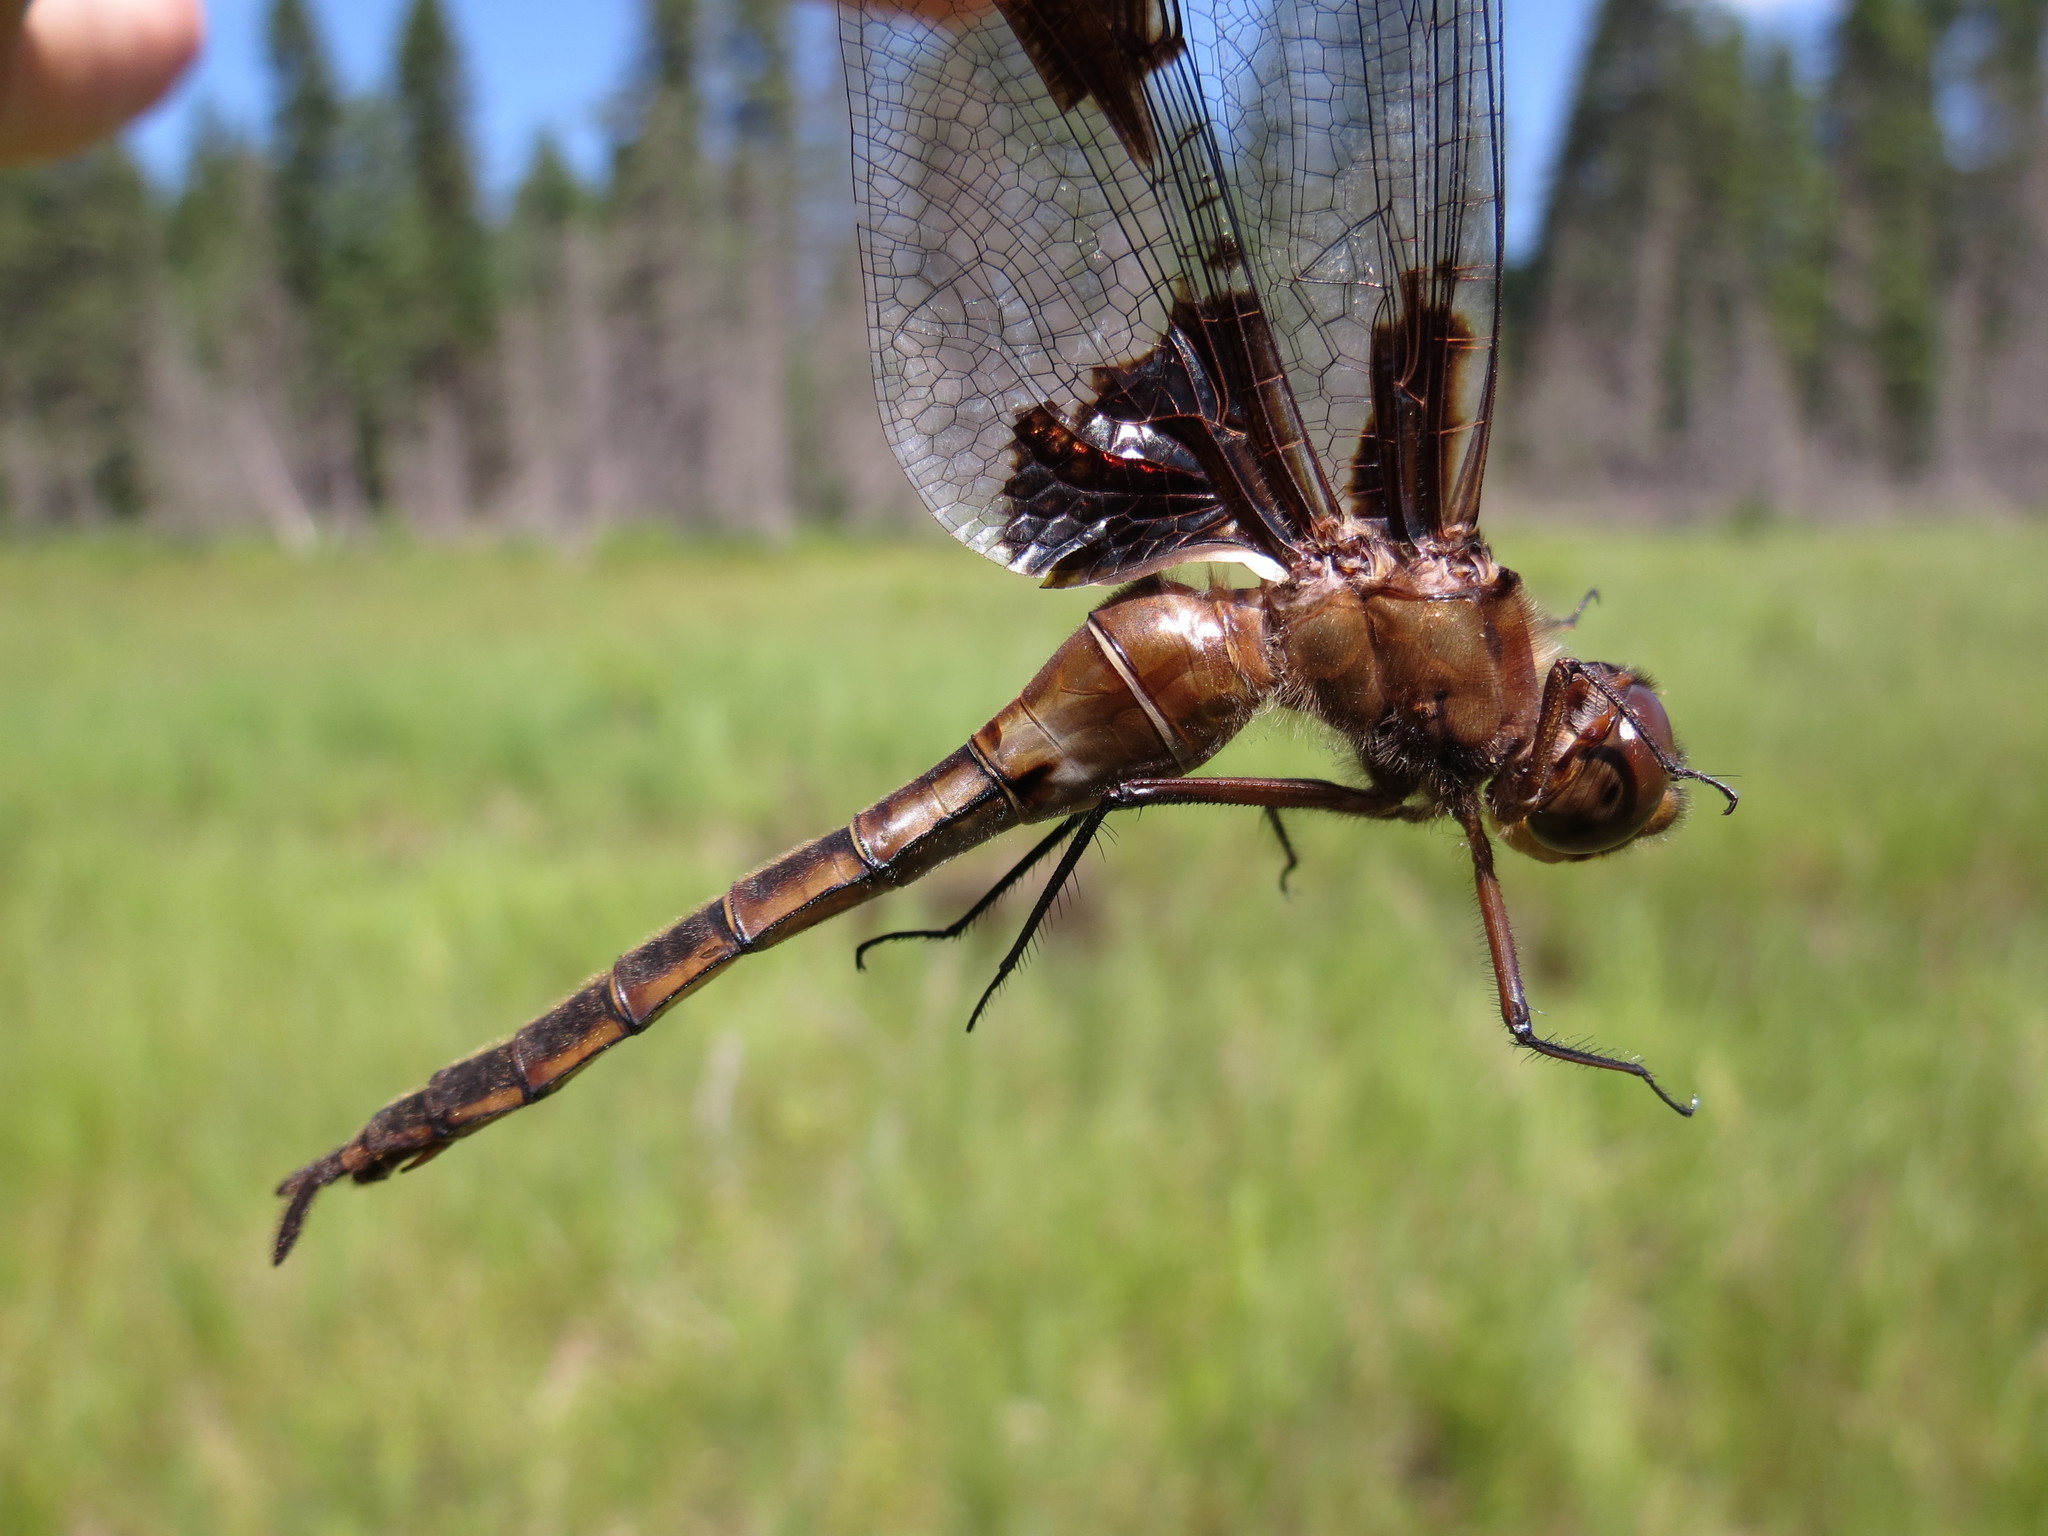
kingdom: Animalia
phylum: Arthropoda
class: Insecta
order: Odonata
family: Corduliidae
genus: Epitheca
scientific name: Epitheca princeps
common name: Prince baskettail
